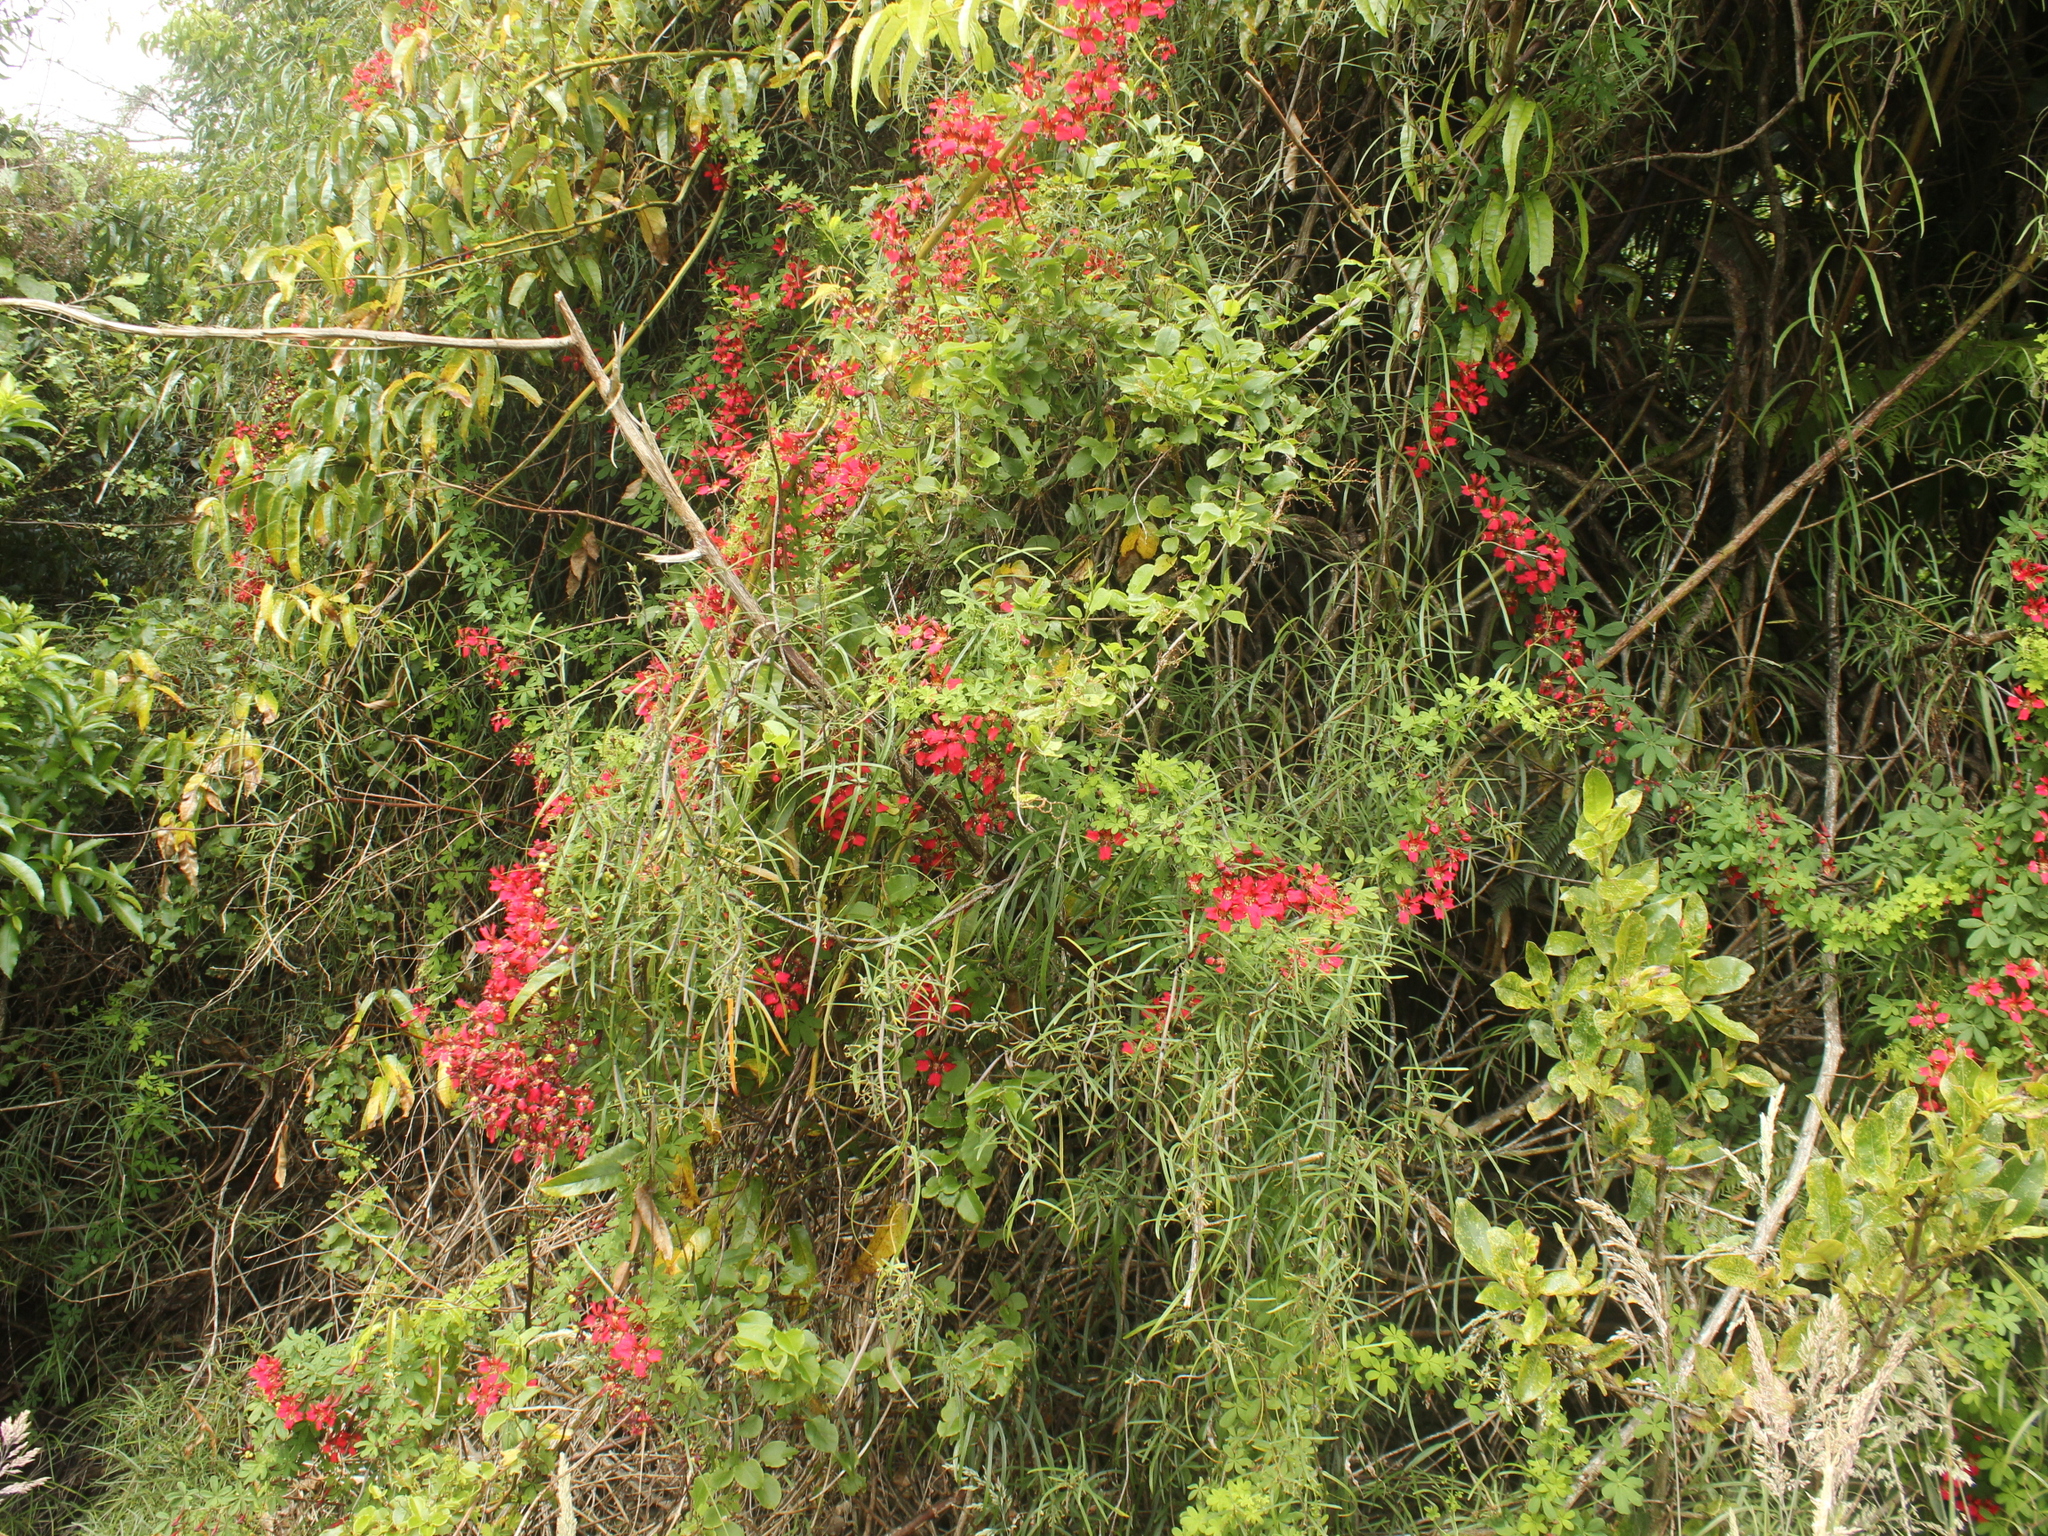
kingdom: Plantae
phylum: Tracheophyta
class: Magnoliopsida
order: Brassicales
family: Tropaeolaceae
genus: Tropaeolum
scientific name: Tropaeolum speciosum
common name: Flame nasturtium
